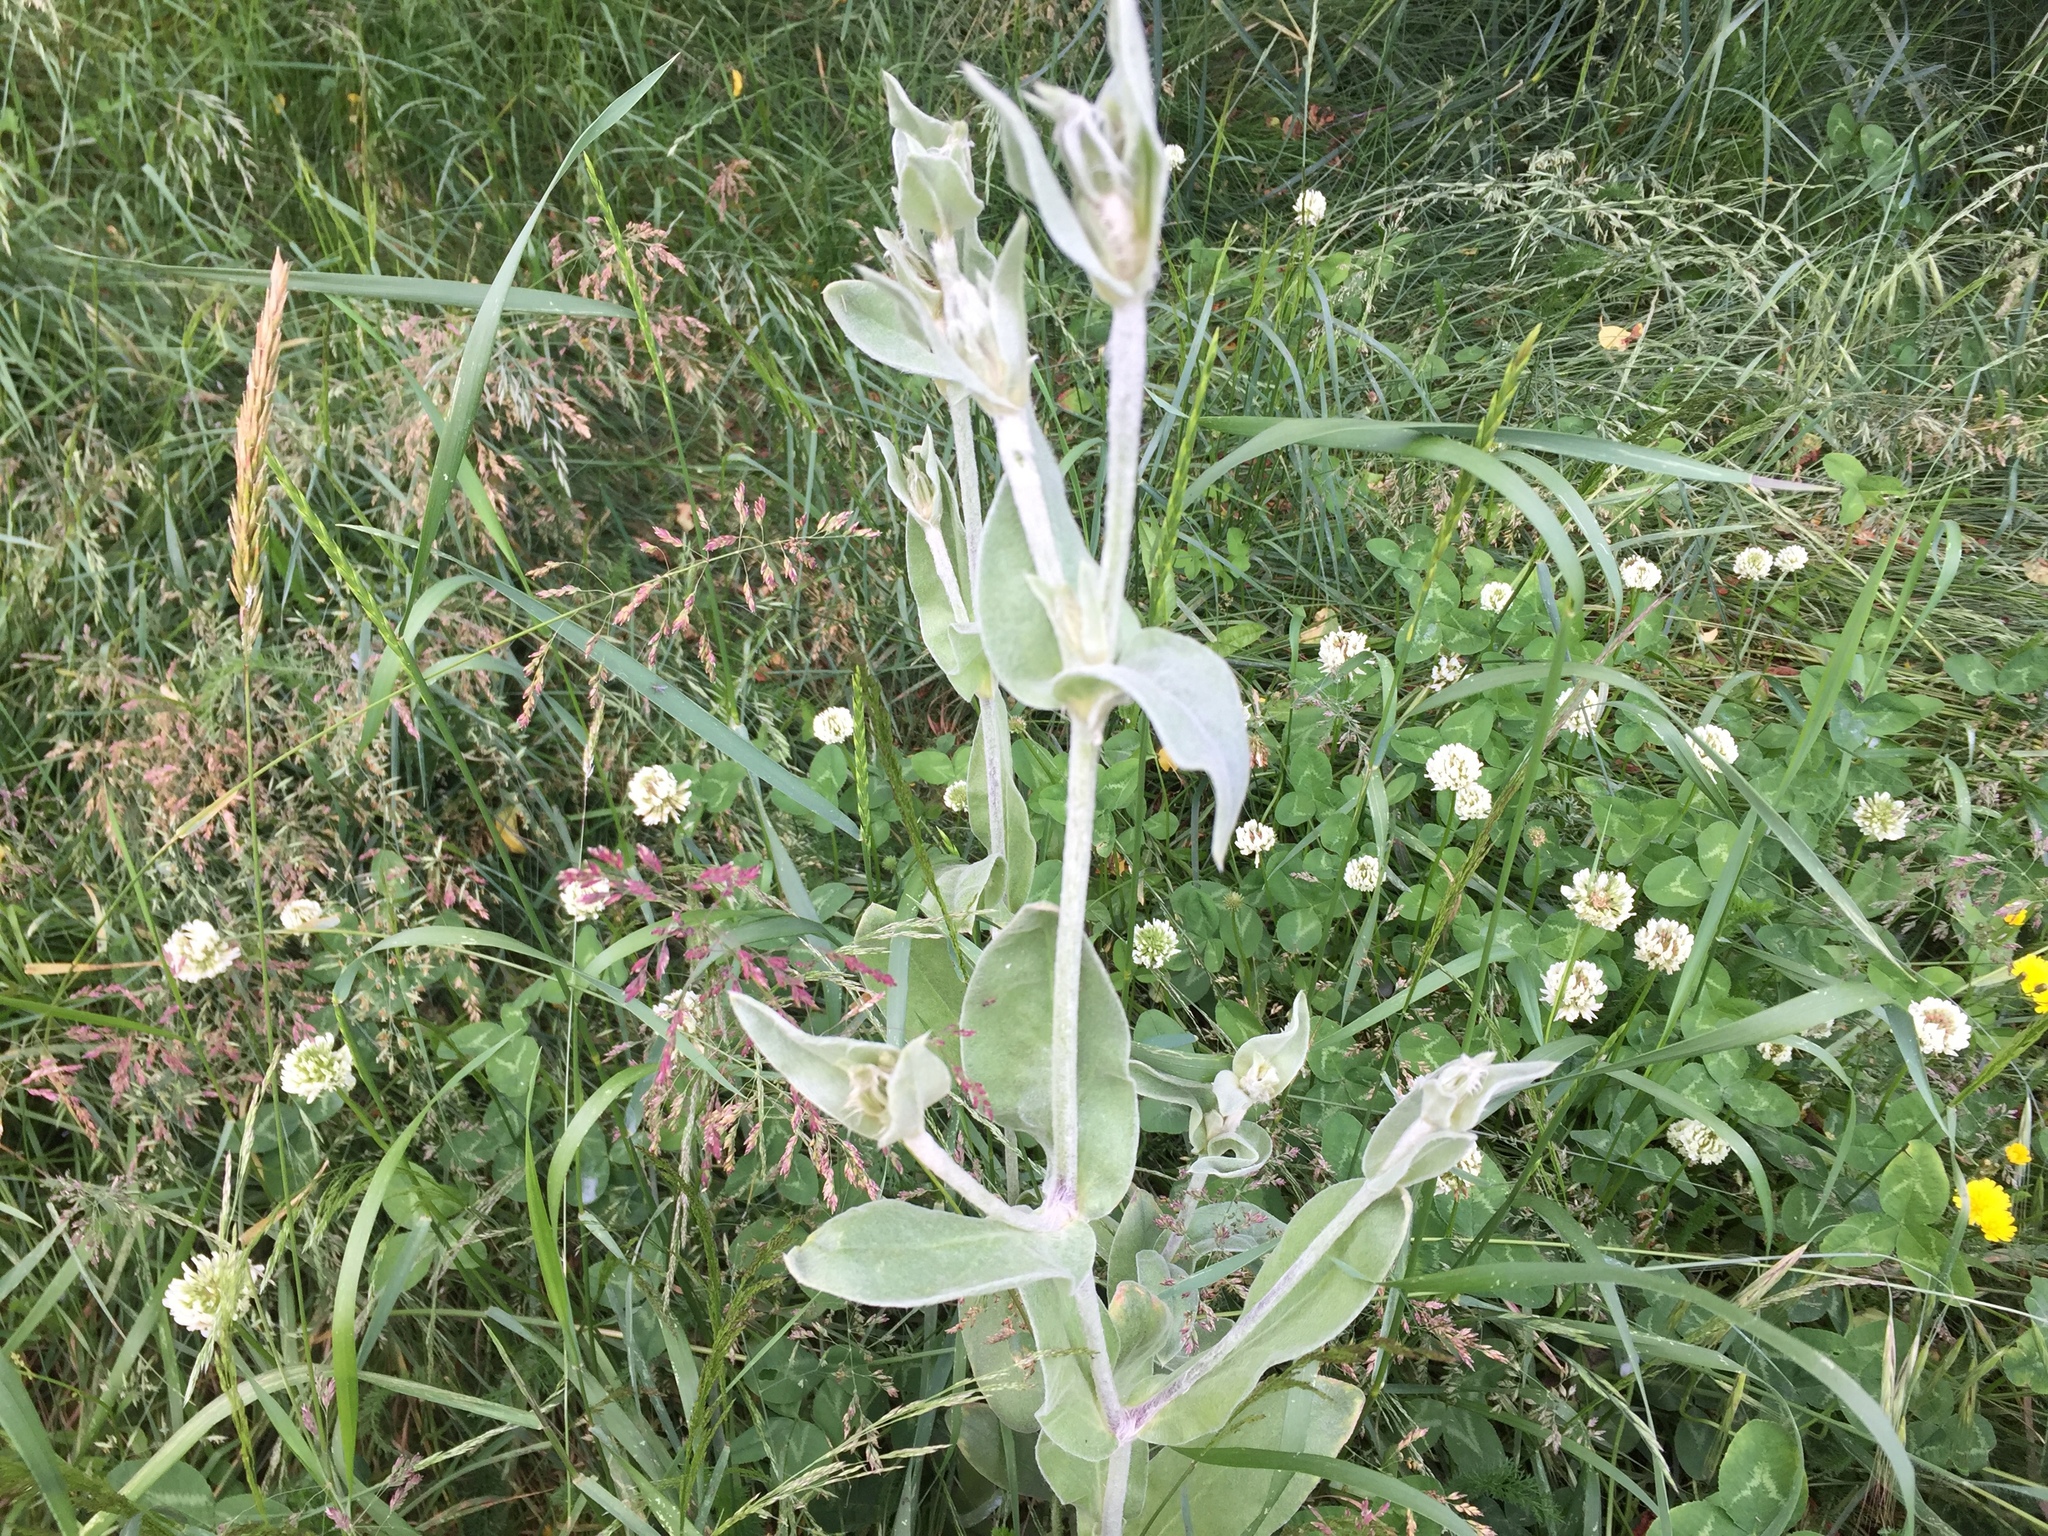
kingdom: Plantae
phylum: Tracheophyta
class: Magnoliopsida
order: Caryophyllales
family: Caryophyllaceae
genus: Silene
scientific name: Silene coronaria
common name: Rose campion
